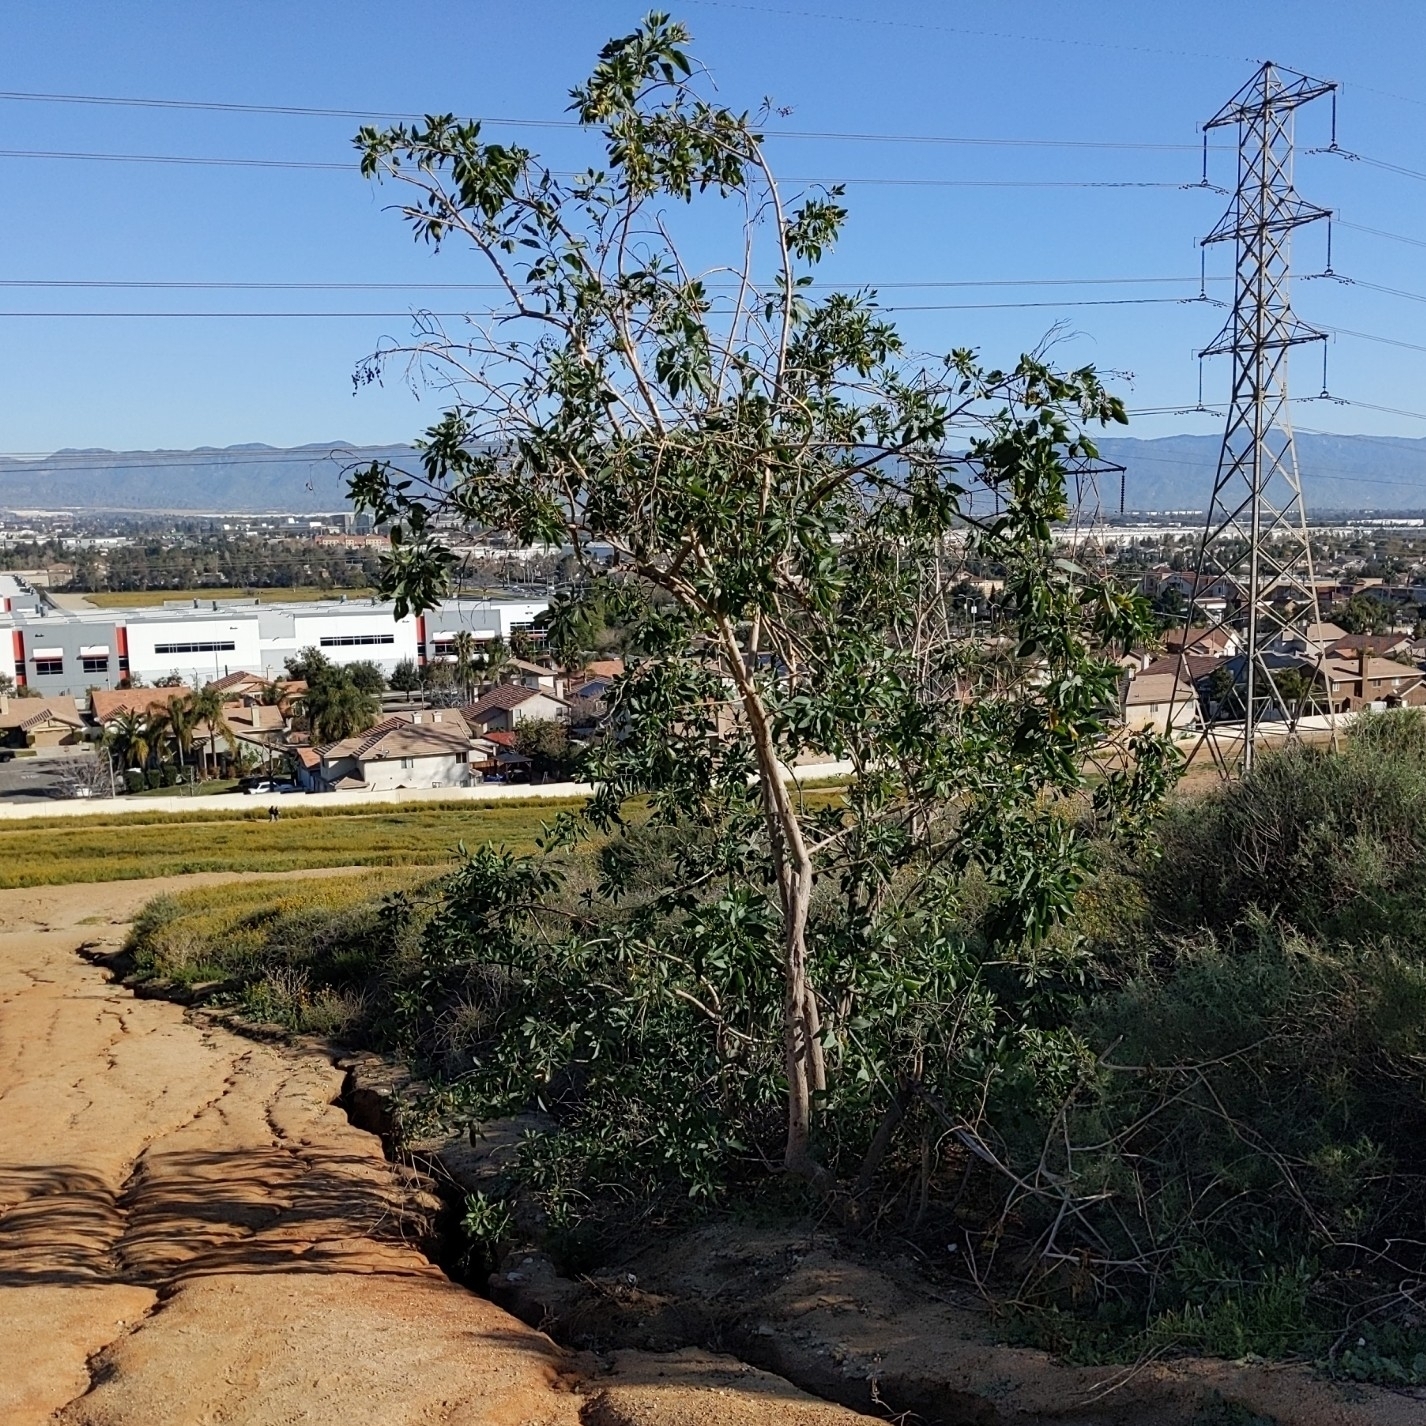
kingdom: Plantae
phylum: Tracheophyta
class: Magnoliopsida
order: Solanales
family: Solanaceae
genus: Nicotiana
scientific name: Nicotiana glauca
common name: Tree tobacco
